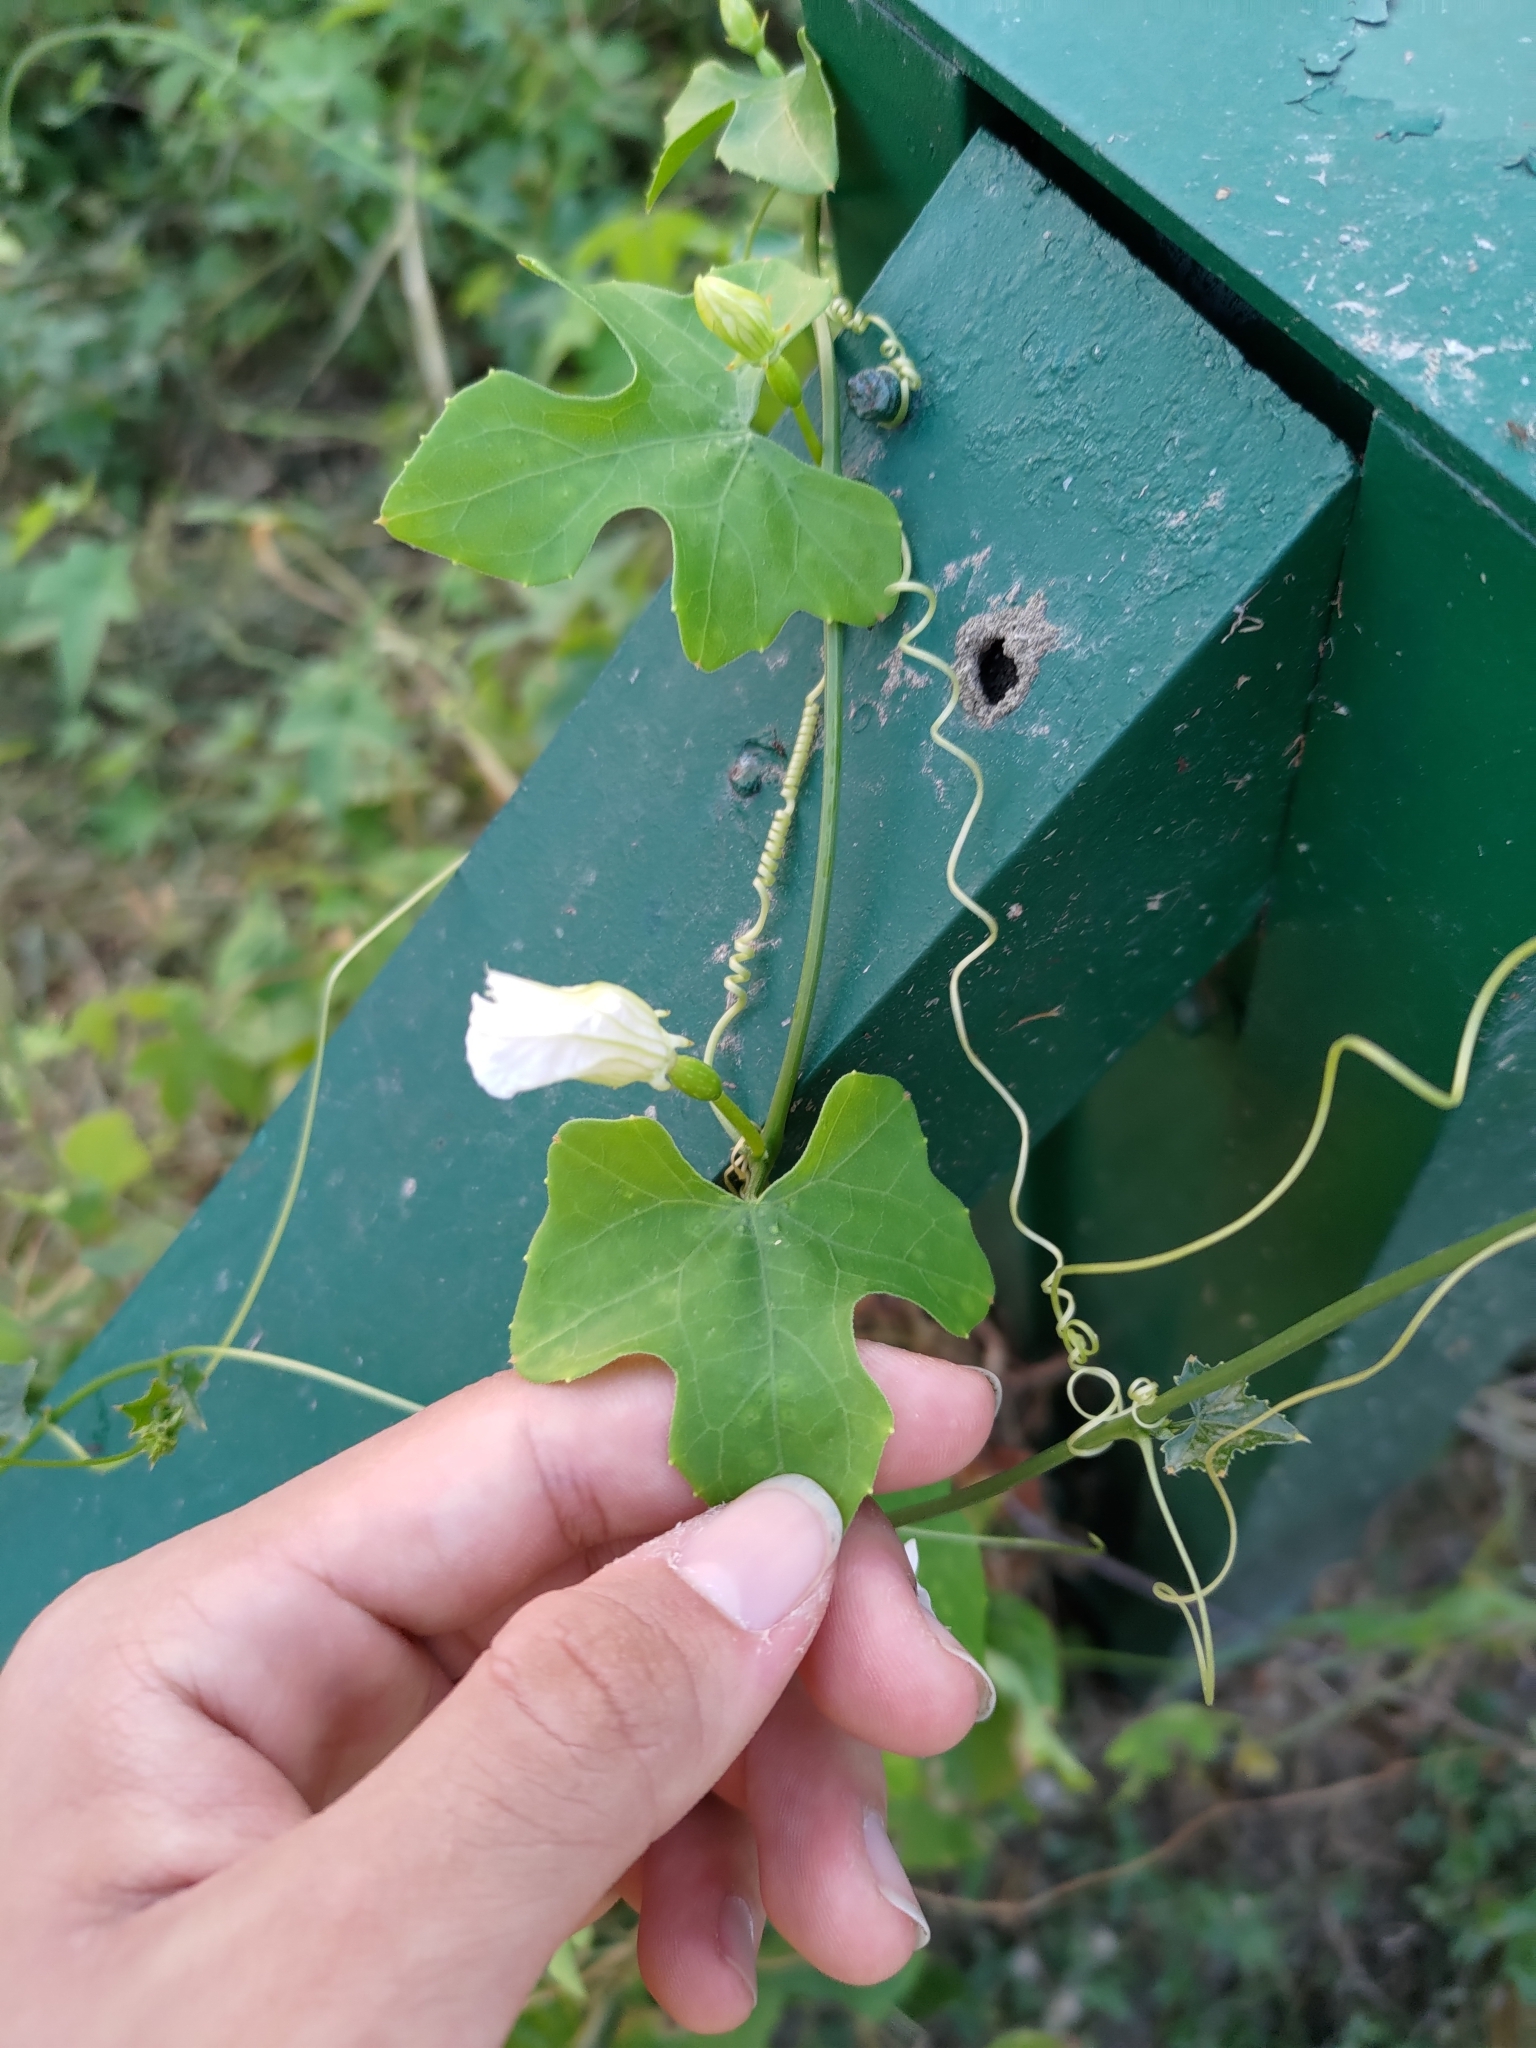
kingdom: Plantae
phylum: Tracheophyta
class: Magnoliopsida
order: Cucurbitales
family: Cucurbitaceae
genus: Coccinia
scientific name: Coccinia grandis
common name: Ivy gourd
